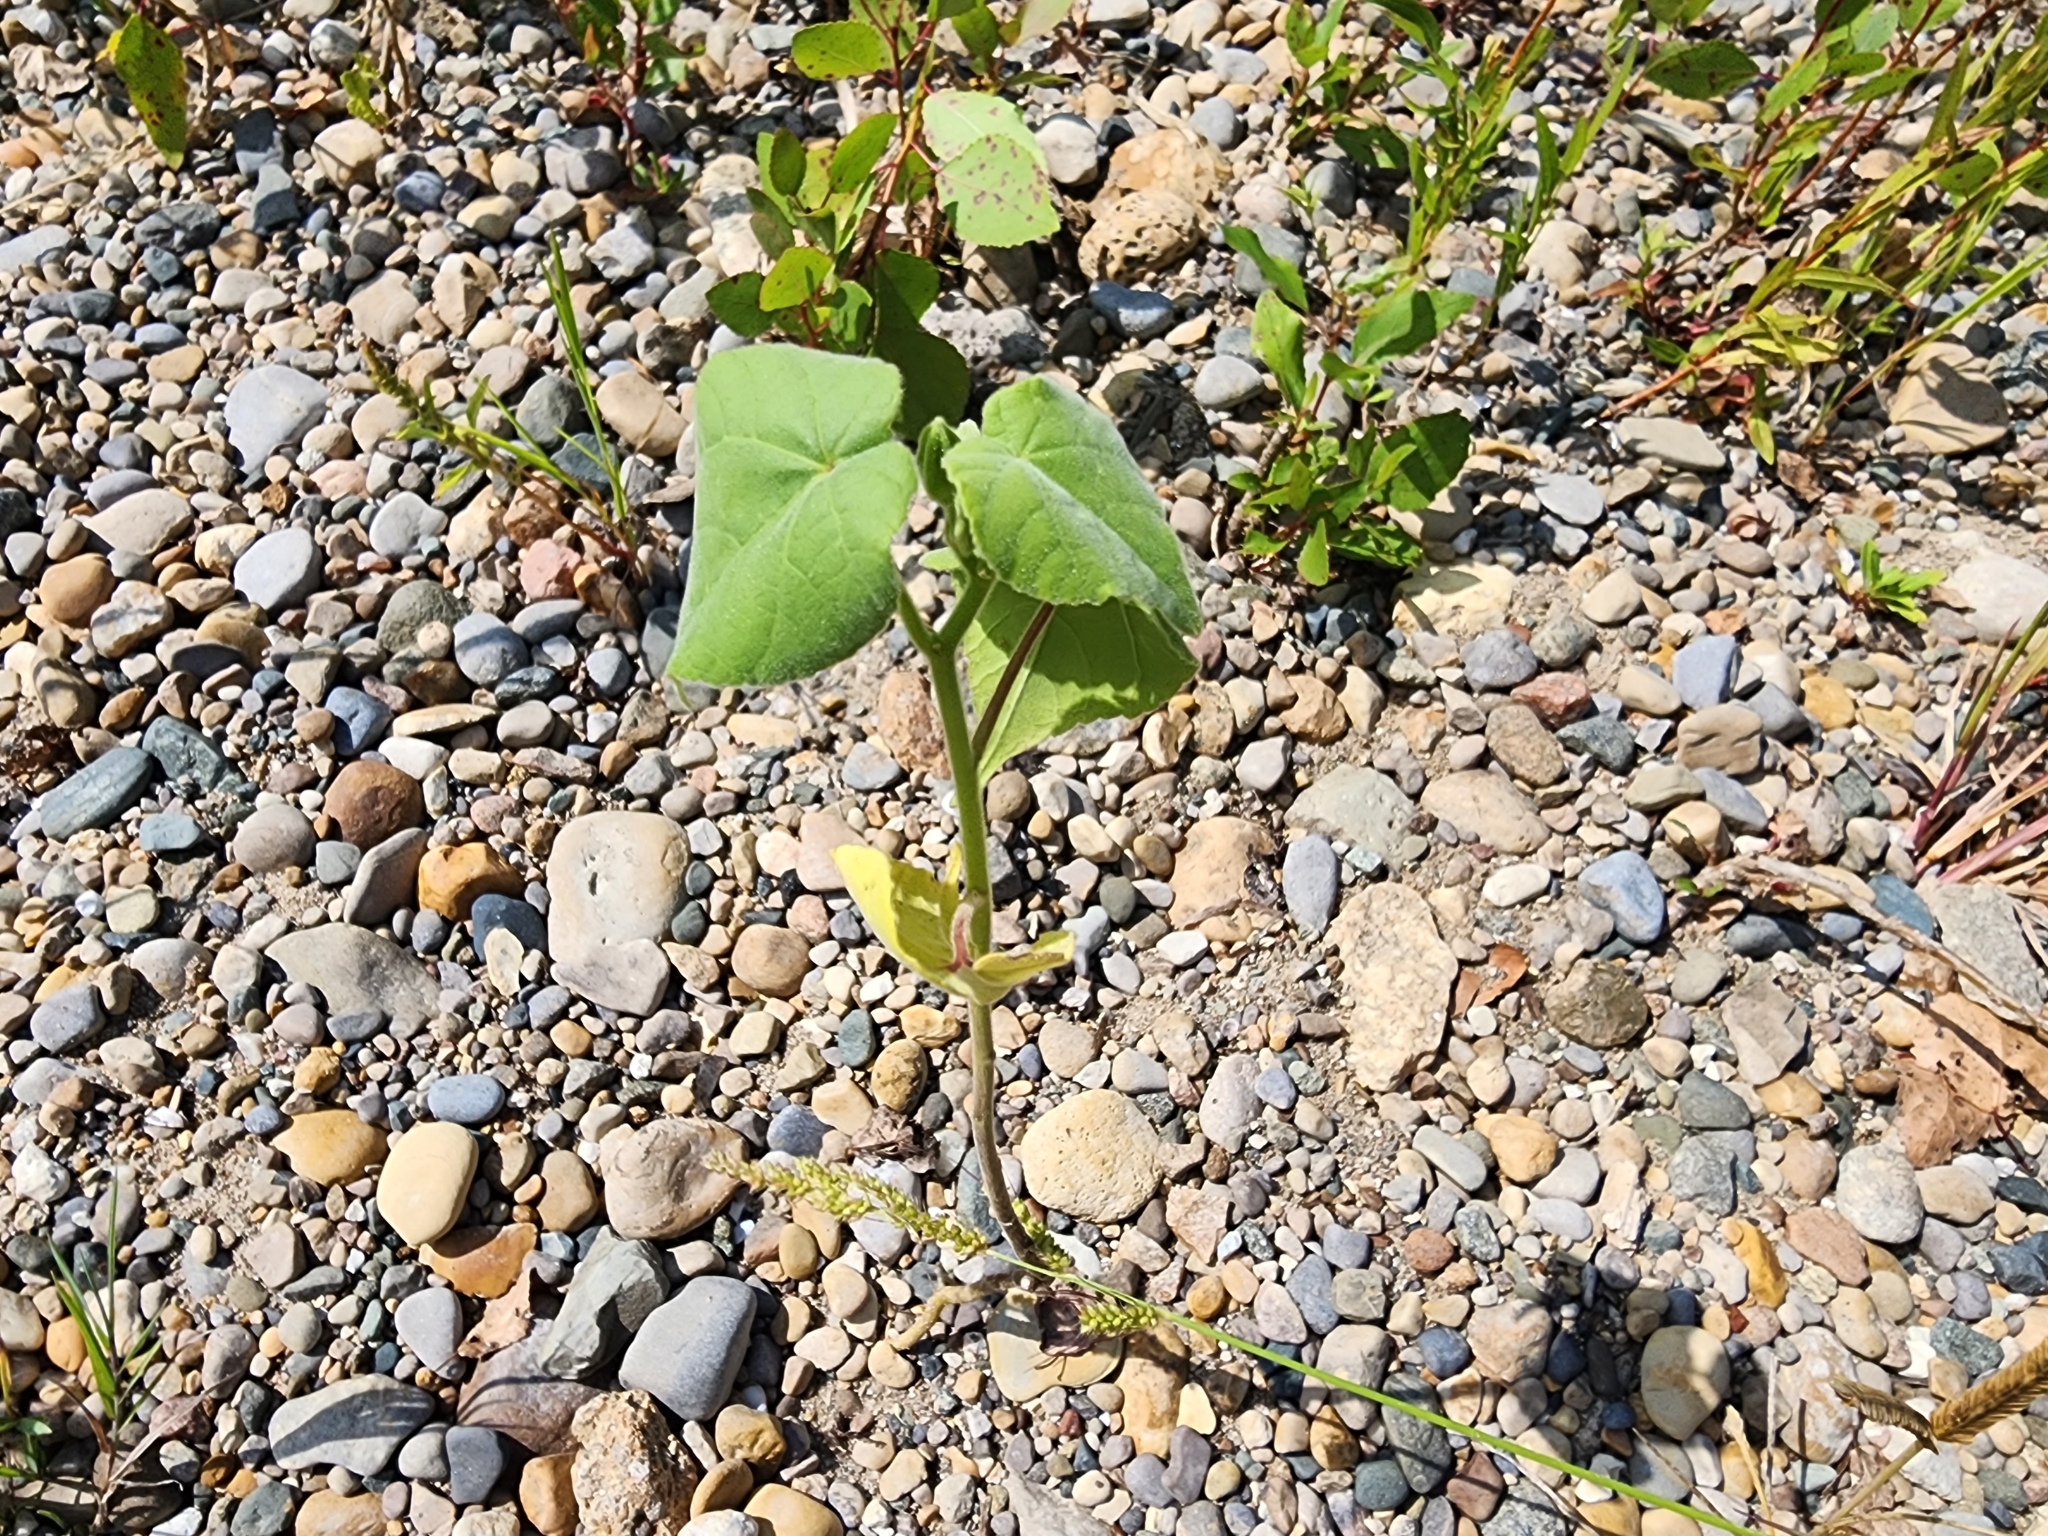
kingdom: Plantae
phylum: Tracheophyta
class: Magnoliopsida
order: Malvales
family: Malvaceae
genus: Abutilon
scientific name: Abutilon theophrasti
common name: Velvetleaf
